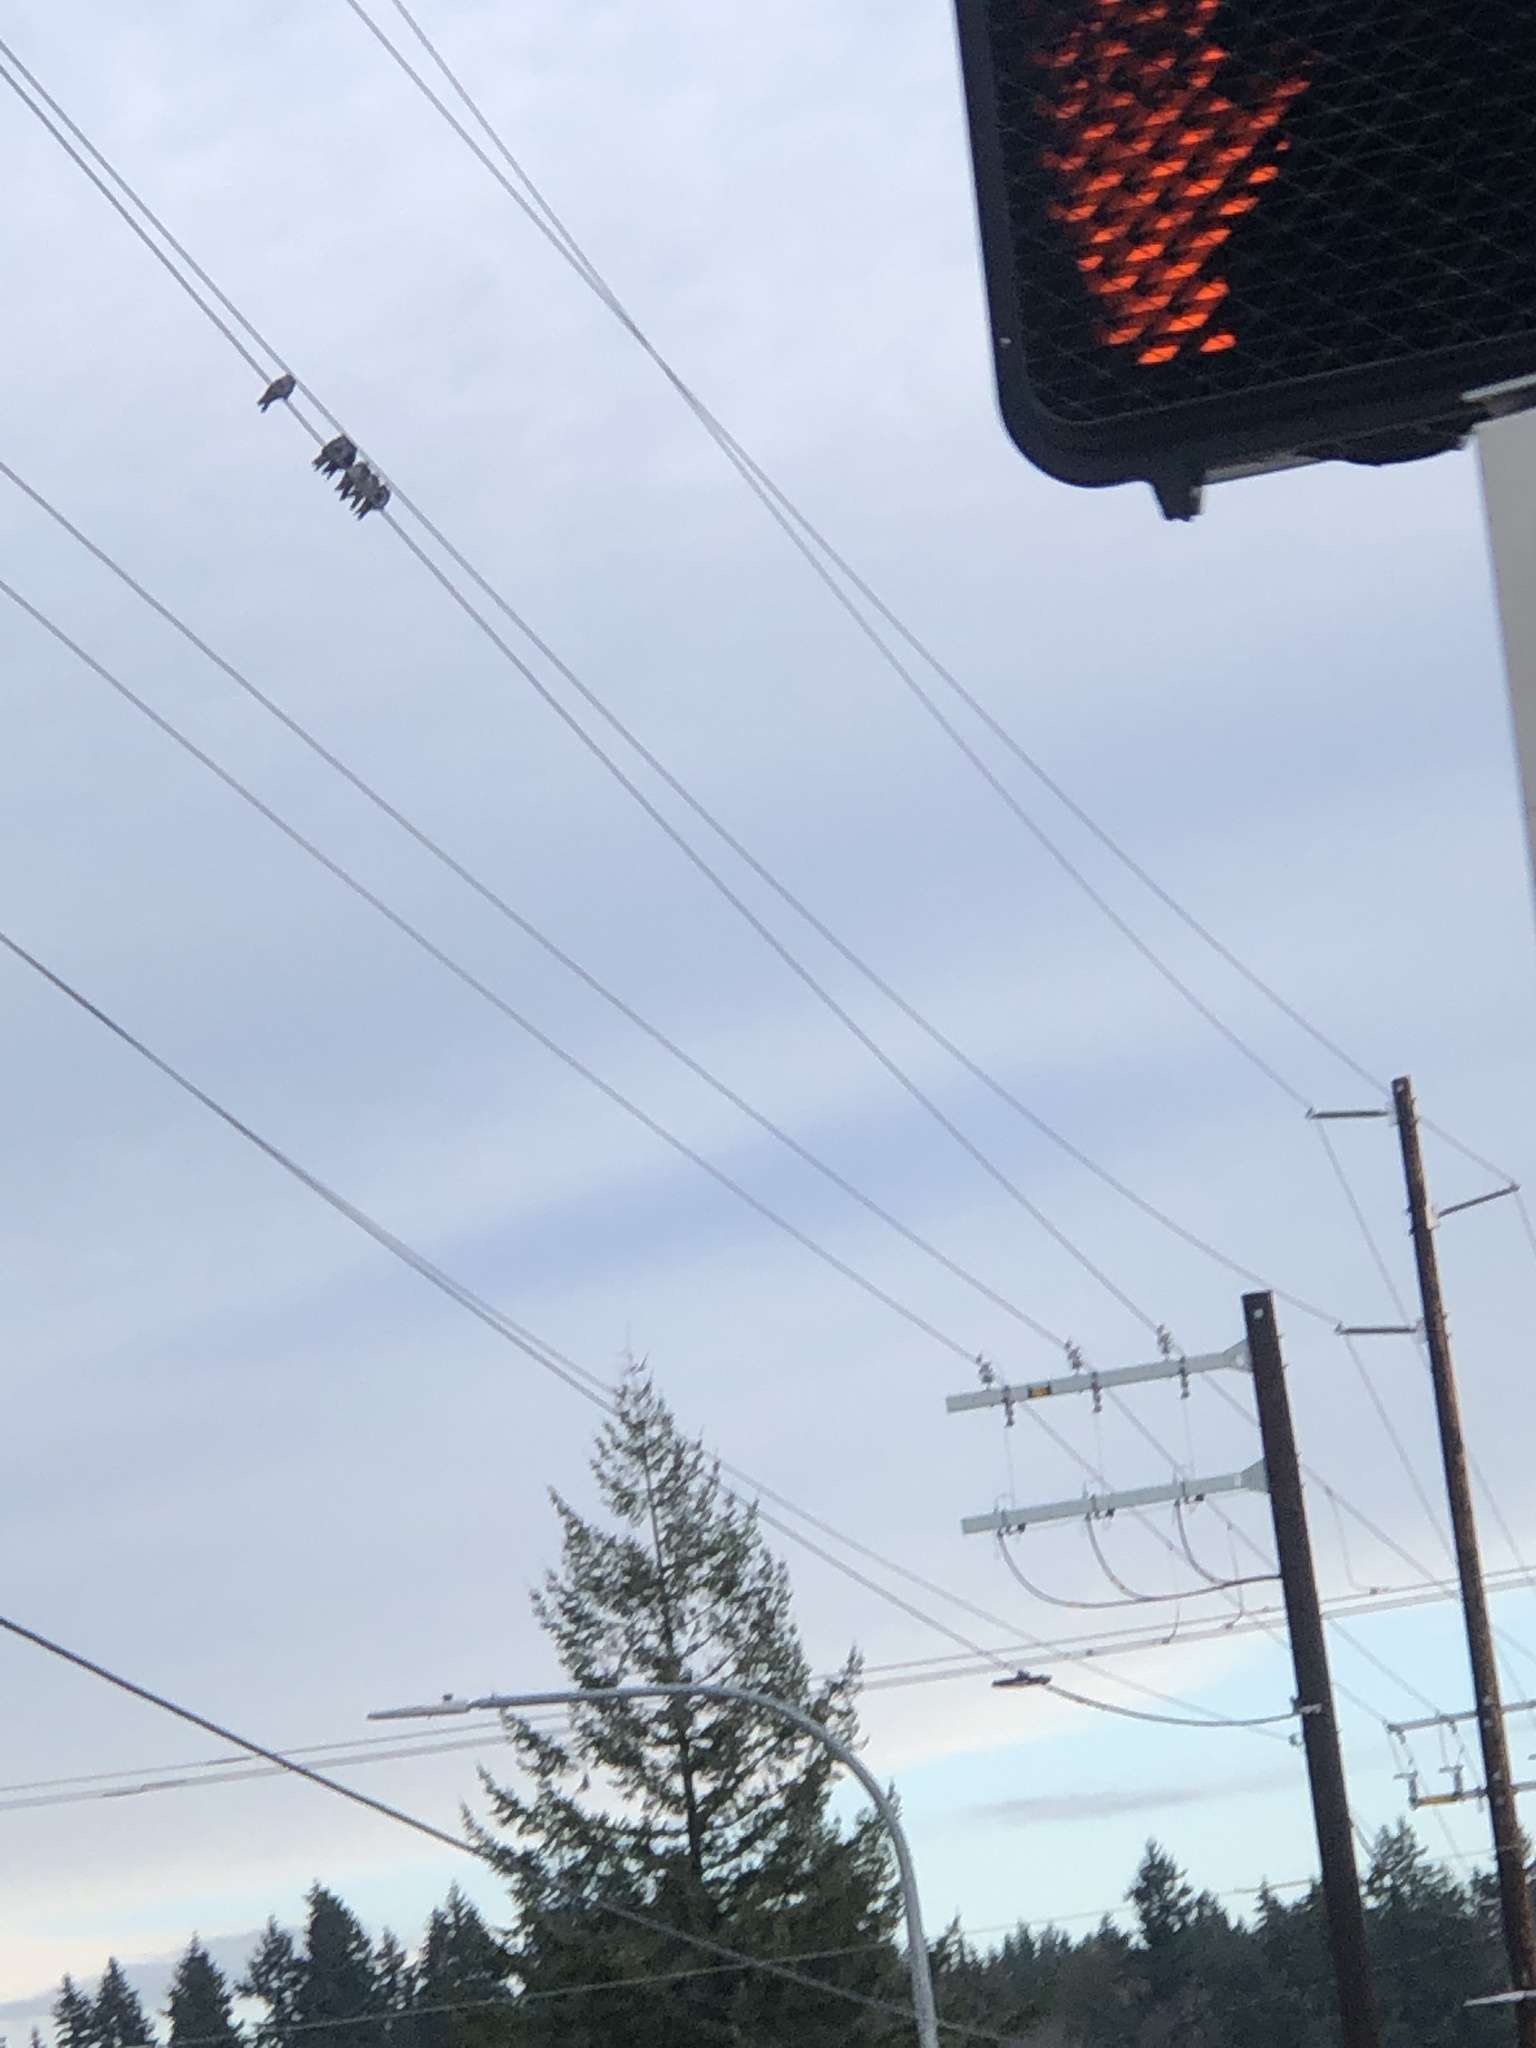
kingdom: Animalia
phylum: Chordata
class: Aves
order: Columbiformes
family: Columbidae
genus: Columba
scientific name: Columba livia
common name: Rock pigeon
